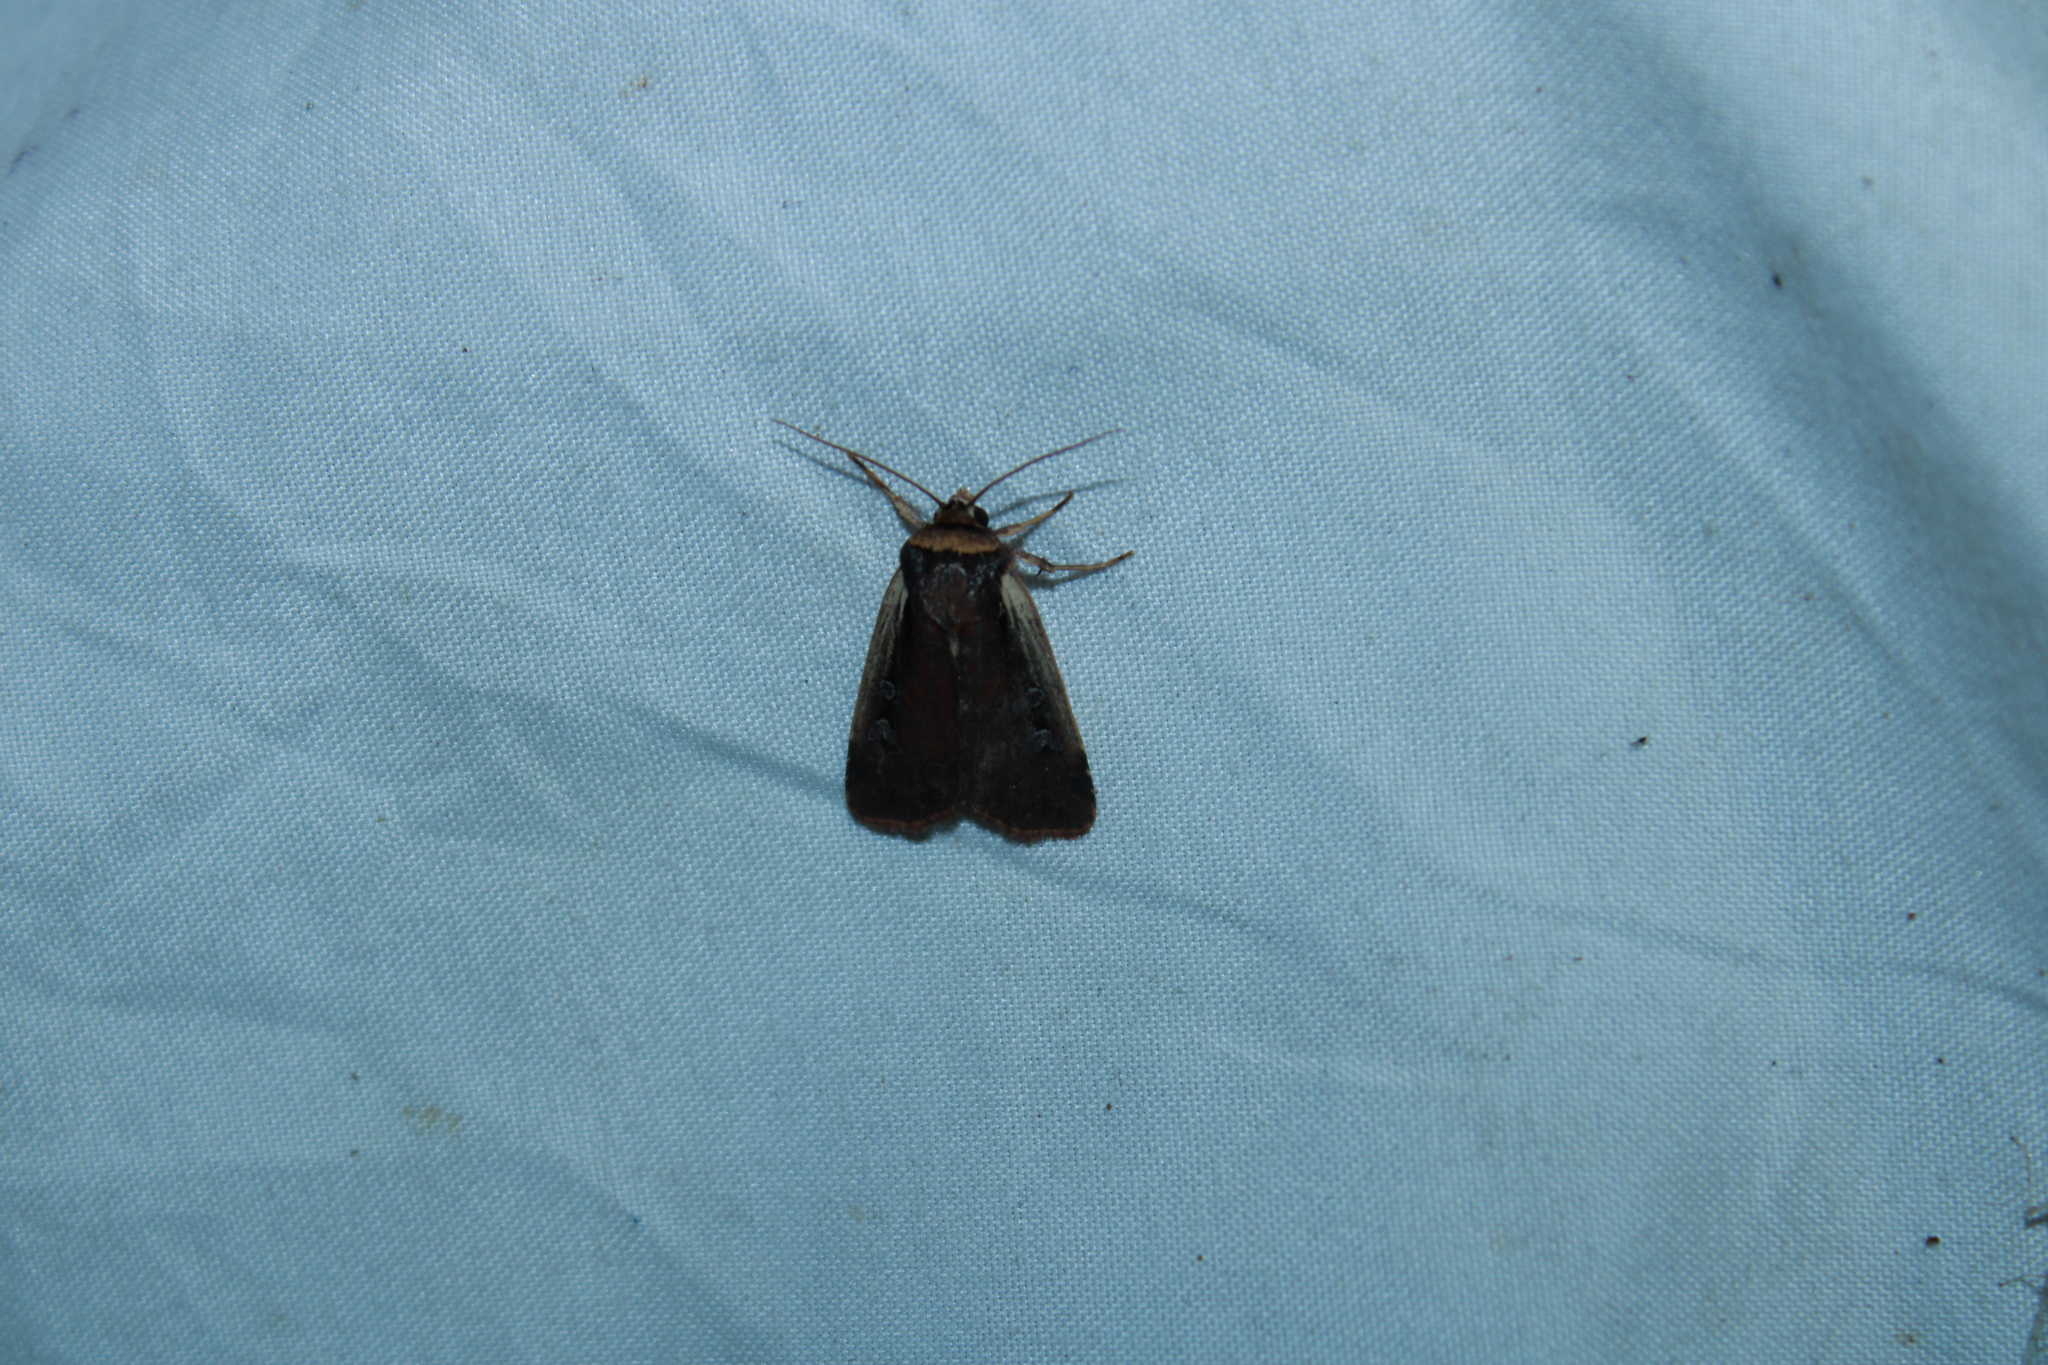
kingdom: Animalia
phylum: Arthropoda
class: Insecta
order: Lepidoptera
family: Noctuidae
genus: Ochropleura
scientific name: Ochropleura implecta
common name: Flame-shouldered dart
